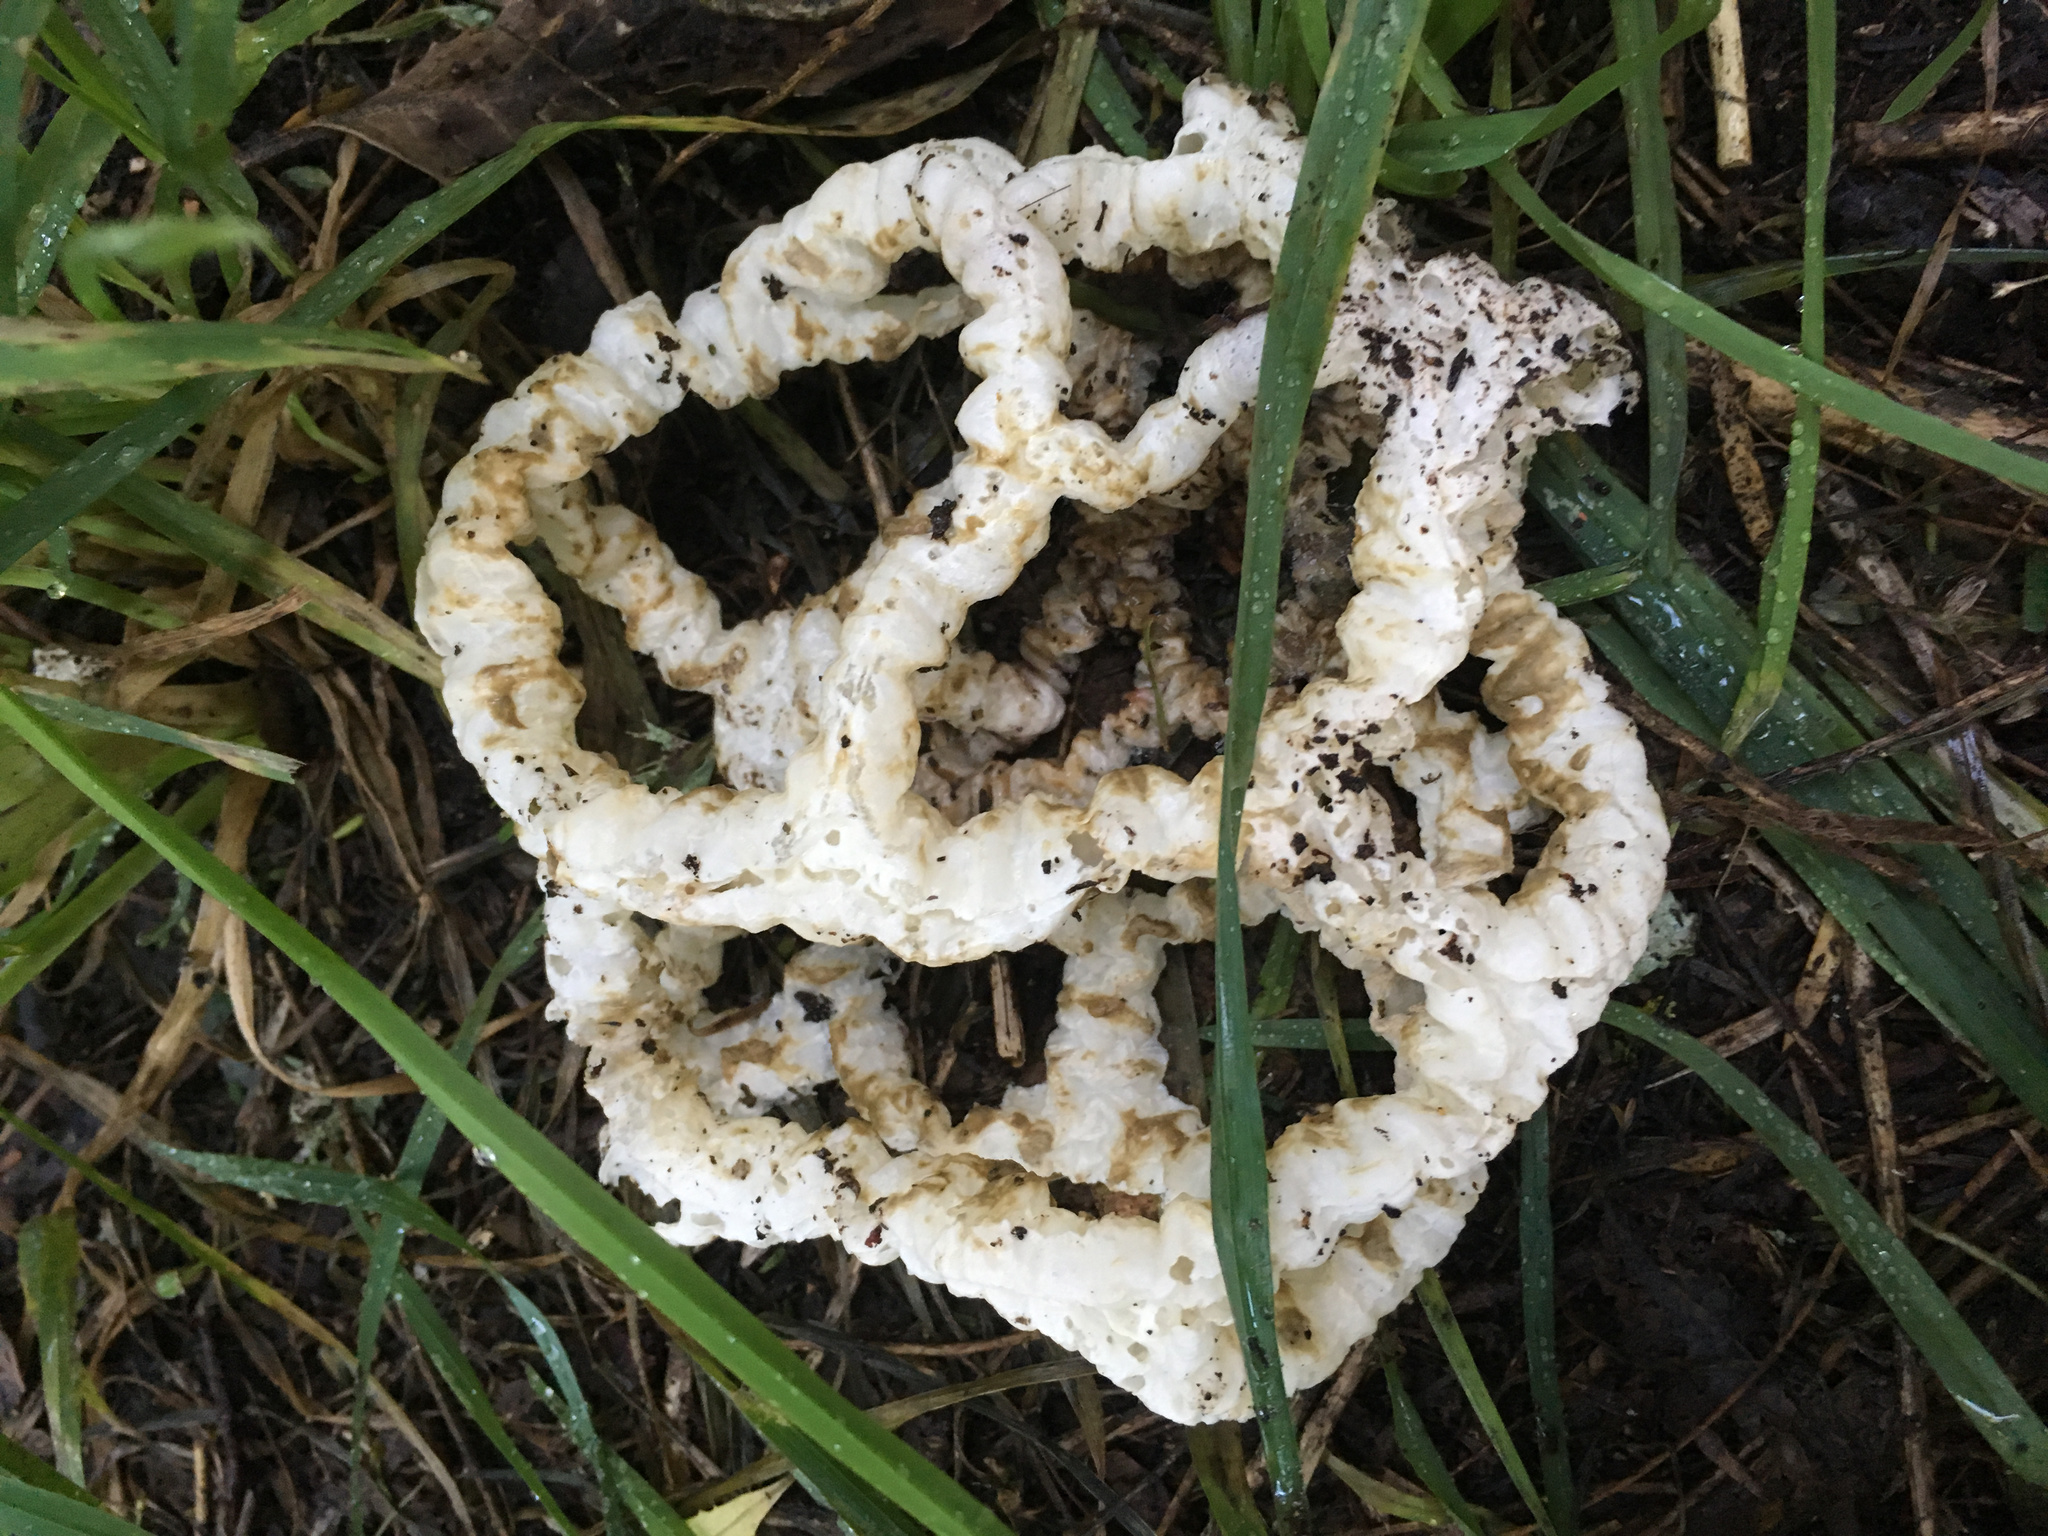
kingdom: Fungi
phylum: Basidiomycota
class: Agaricomycetes
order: Phallales
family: Phallaceae
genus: Ileodictyon
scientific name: Ileodictyon cibarium
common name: Basket fungus
